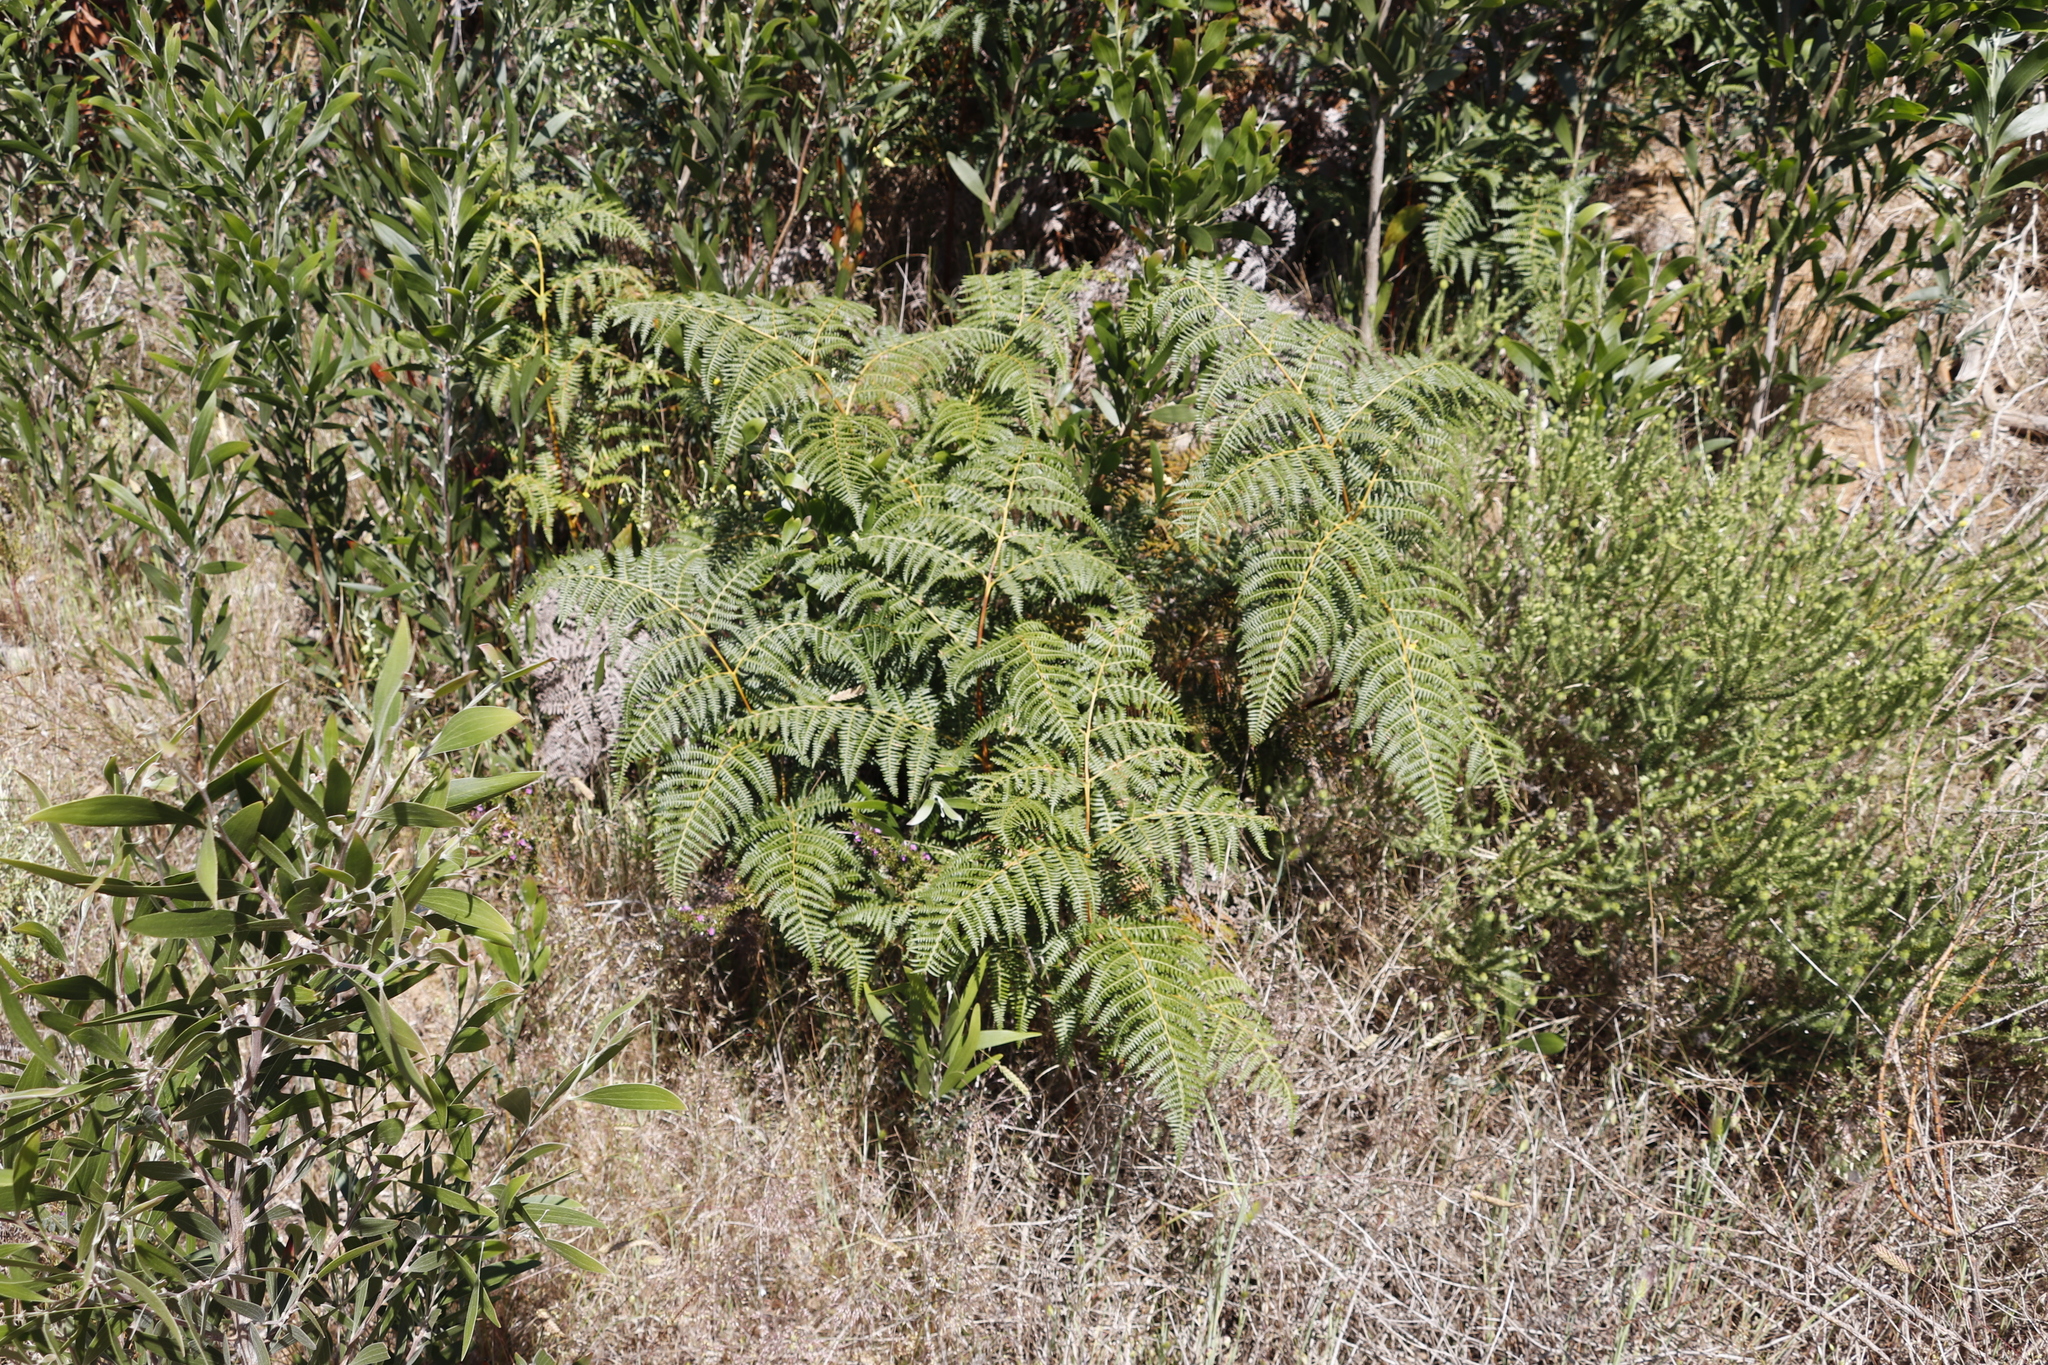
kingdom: Plantae
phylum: Tracheophyta
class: Polypodiopsida
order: Polypodiales
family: Dennstaedtiaceae
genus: Pteridium
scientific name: Pteridium aquilinum
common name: Bracken
